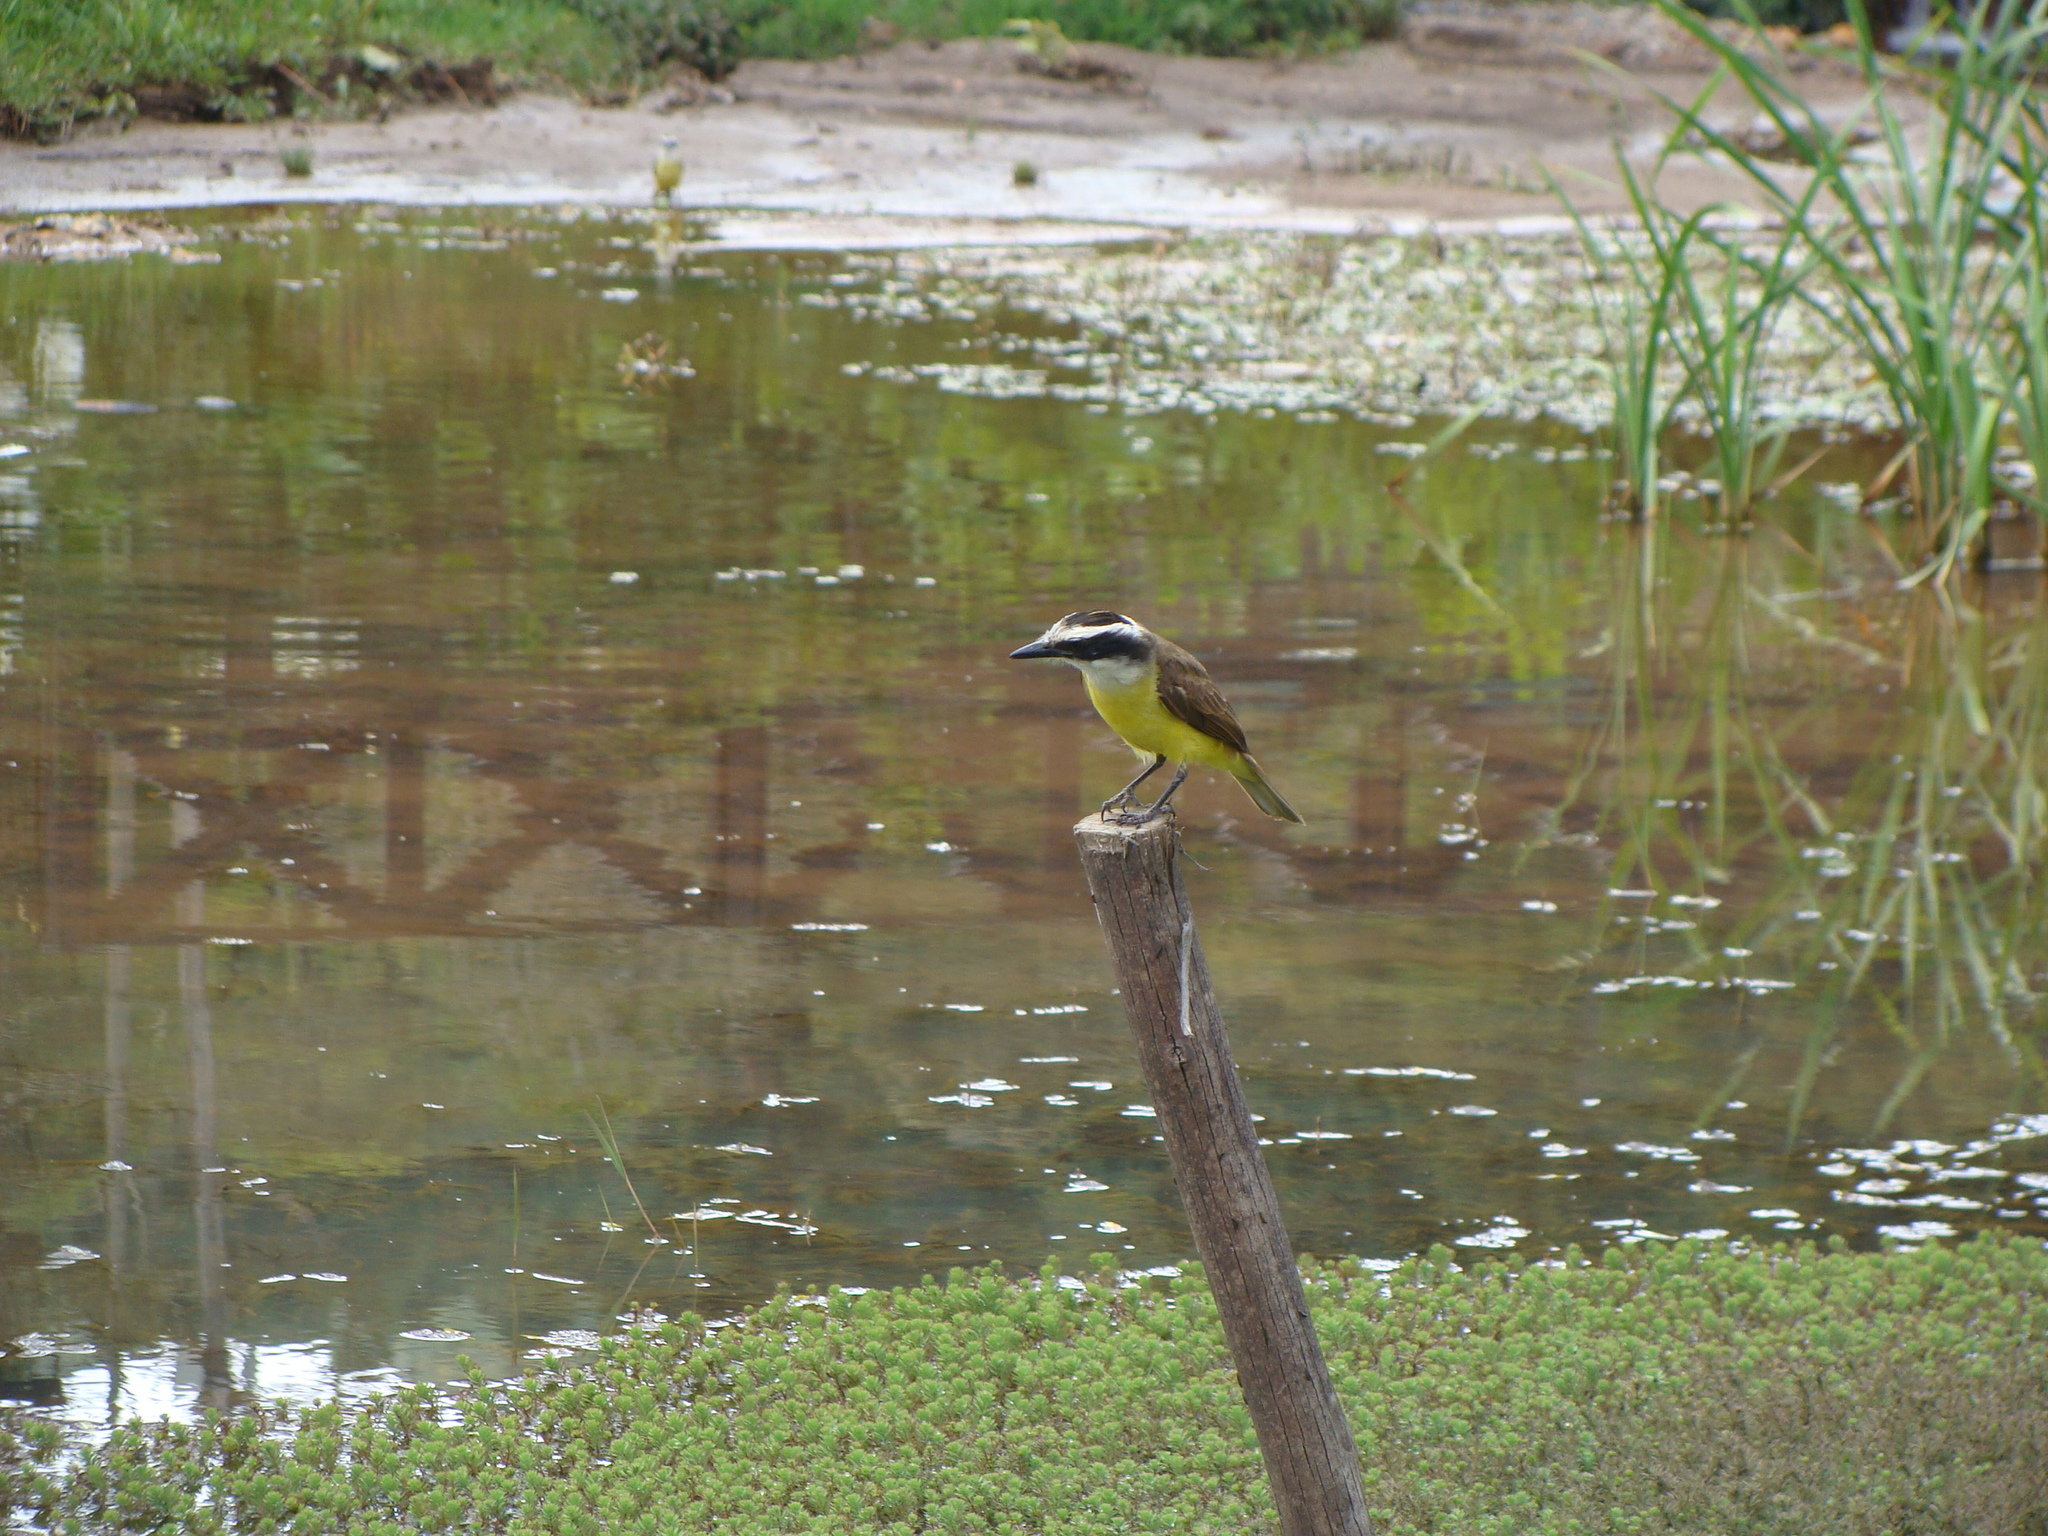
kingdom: Animalia
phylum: Chordata
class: Aves
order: Passeriformes
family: Tyrannidae
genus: Pitangus
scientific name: Pitangus sulphuratus
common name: Great kiskadee
